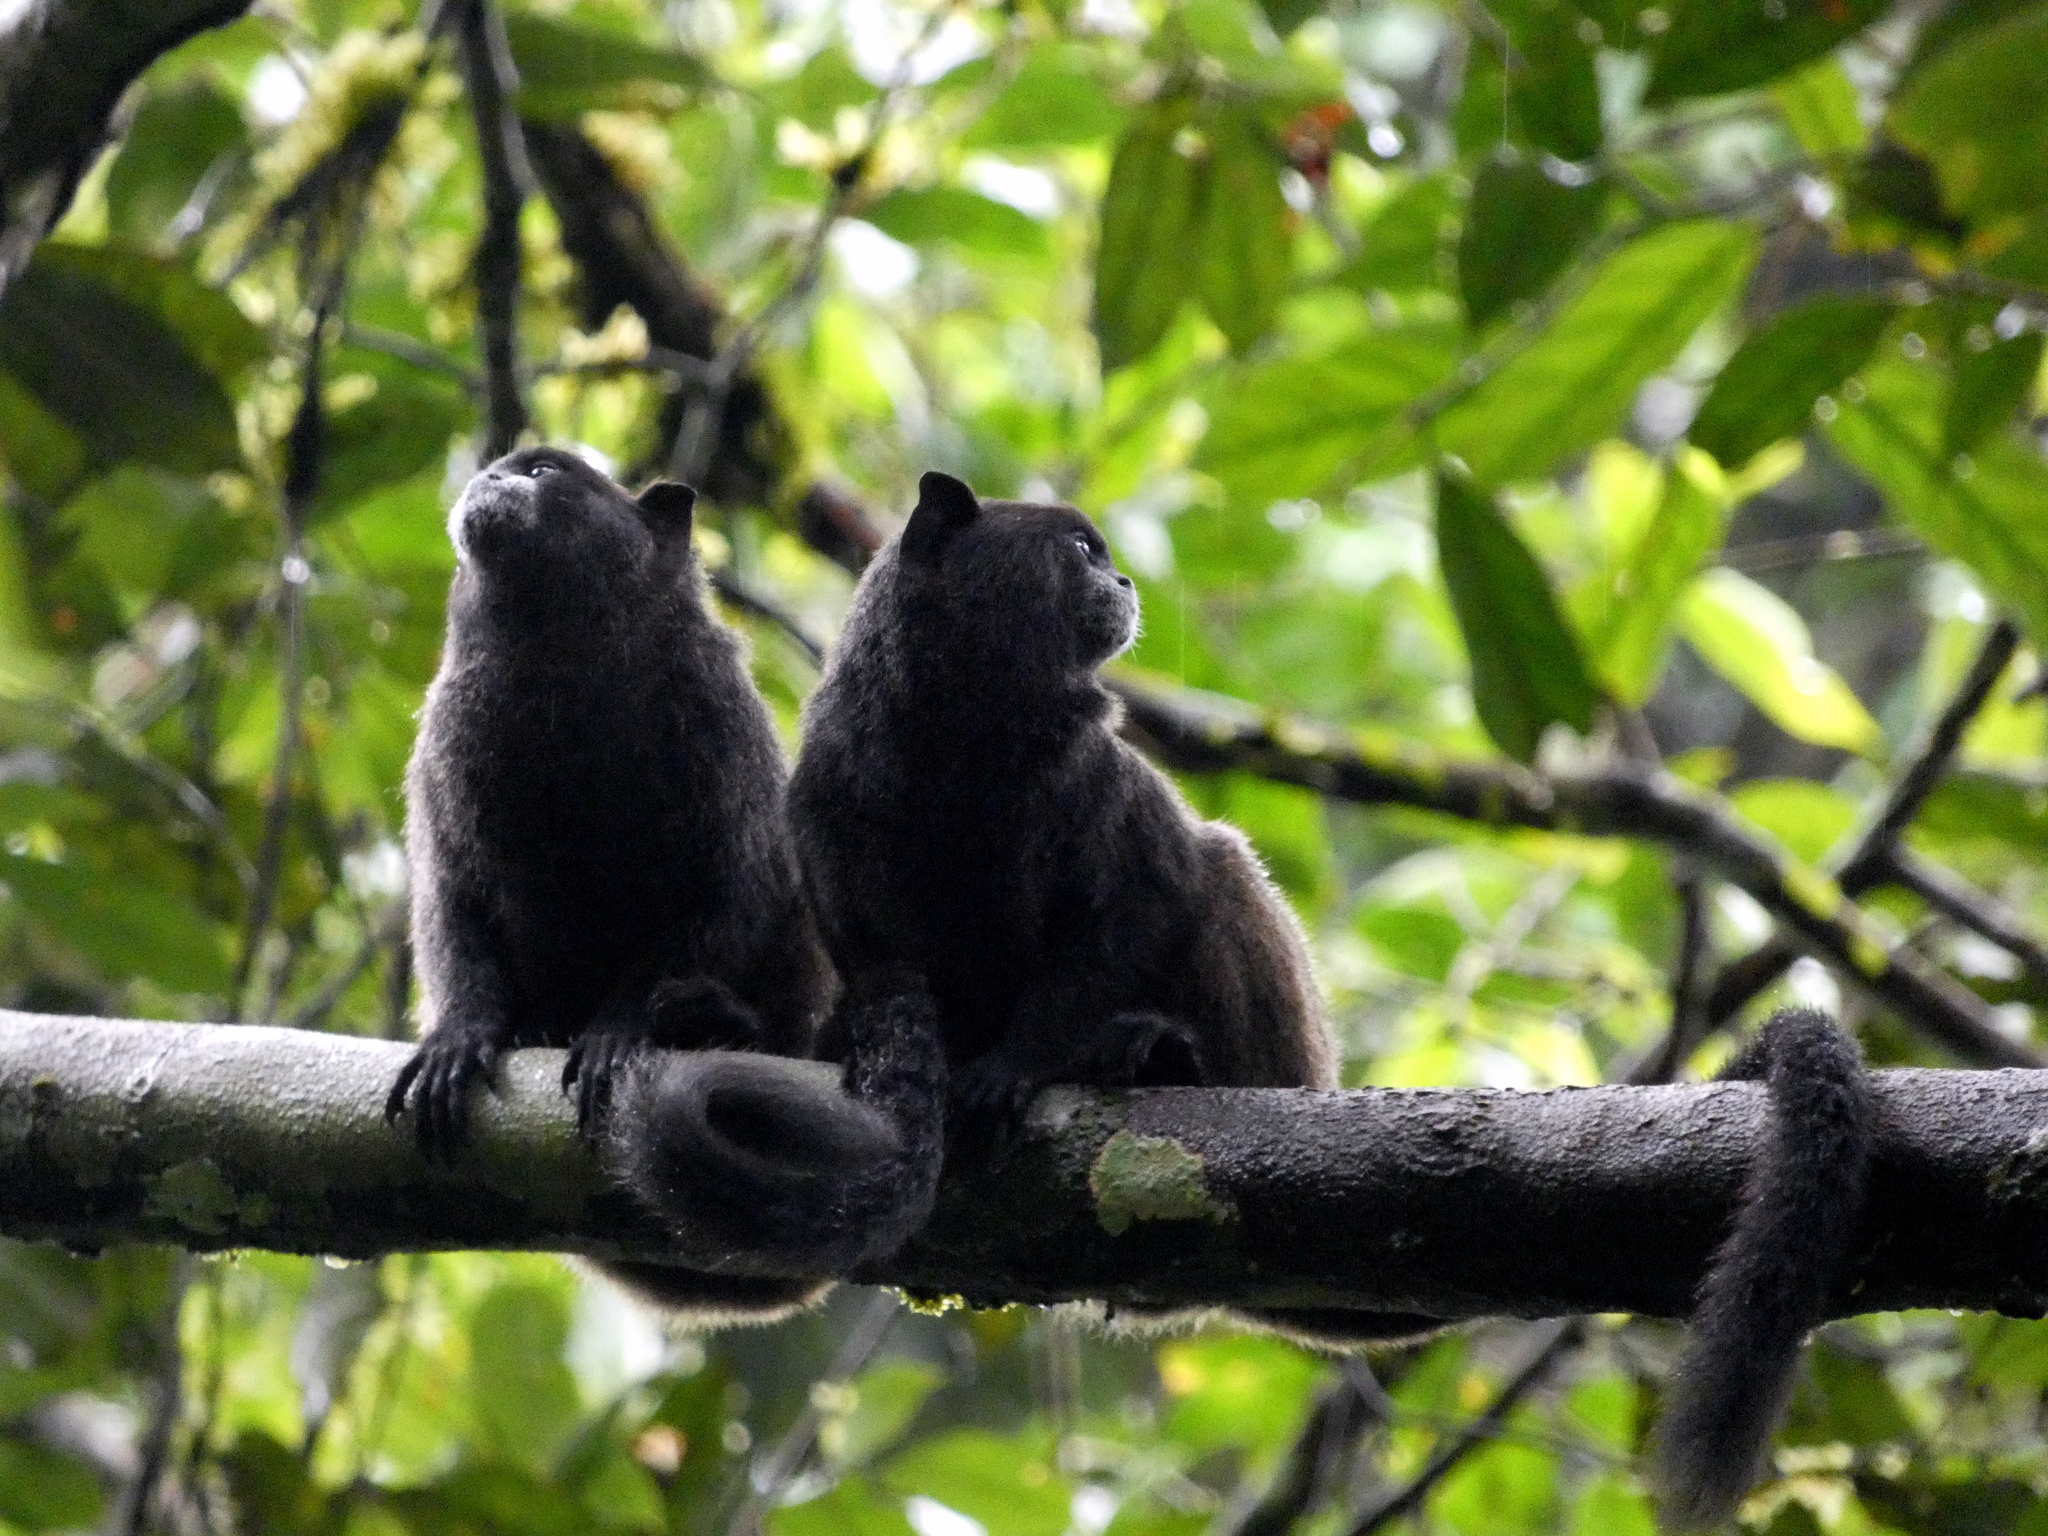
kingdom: Animalia
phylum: Chordata
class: Mammalia
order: Primates
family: Callitrichidae
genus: Leontocebus
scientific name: Leontocebus nigricollis
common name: Black-mantled tamarin
